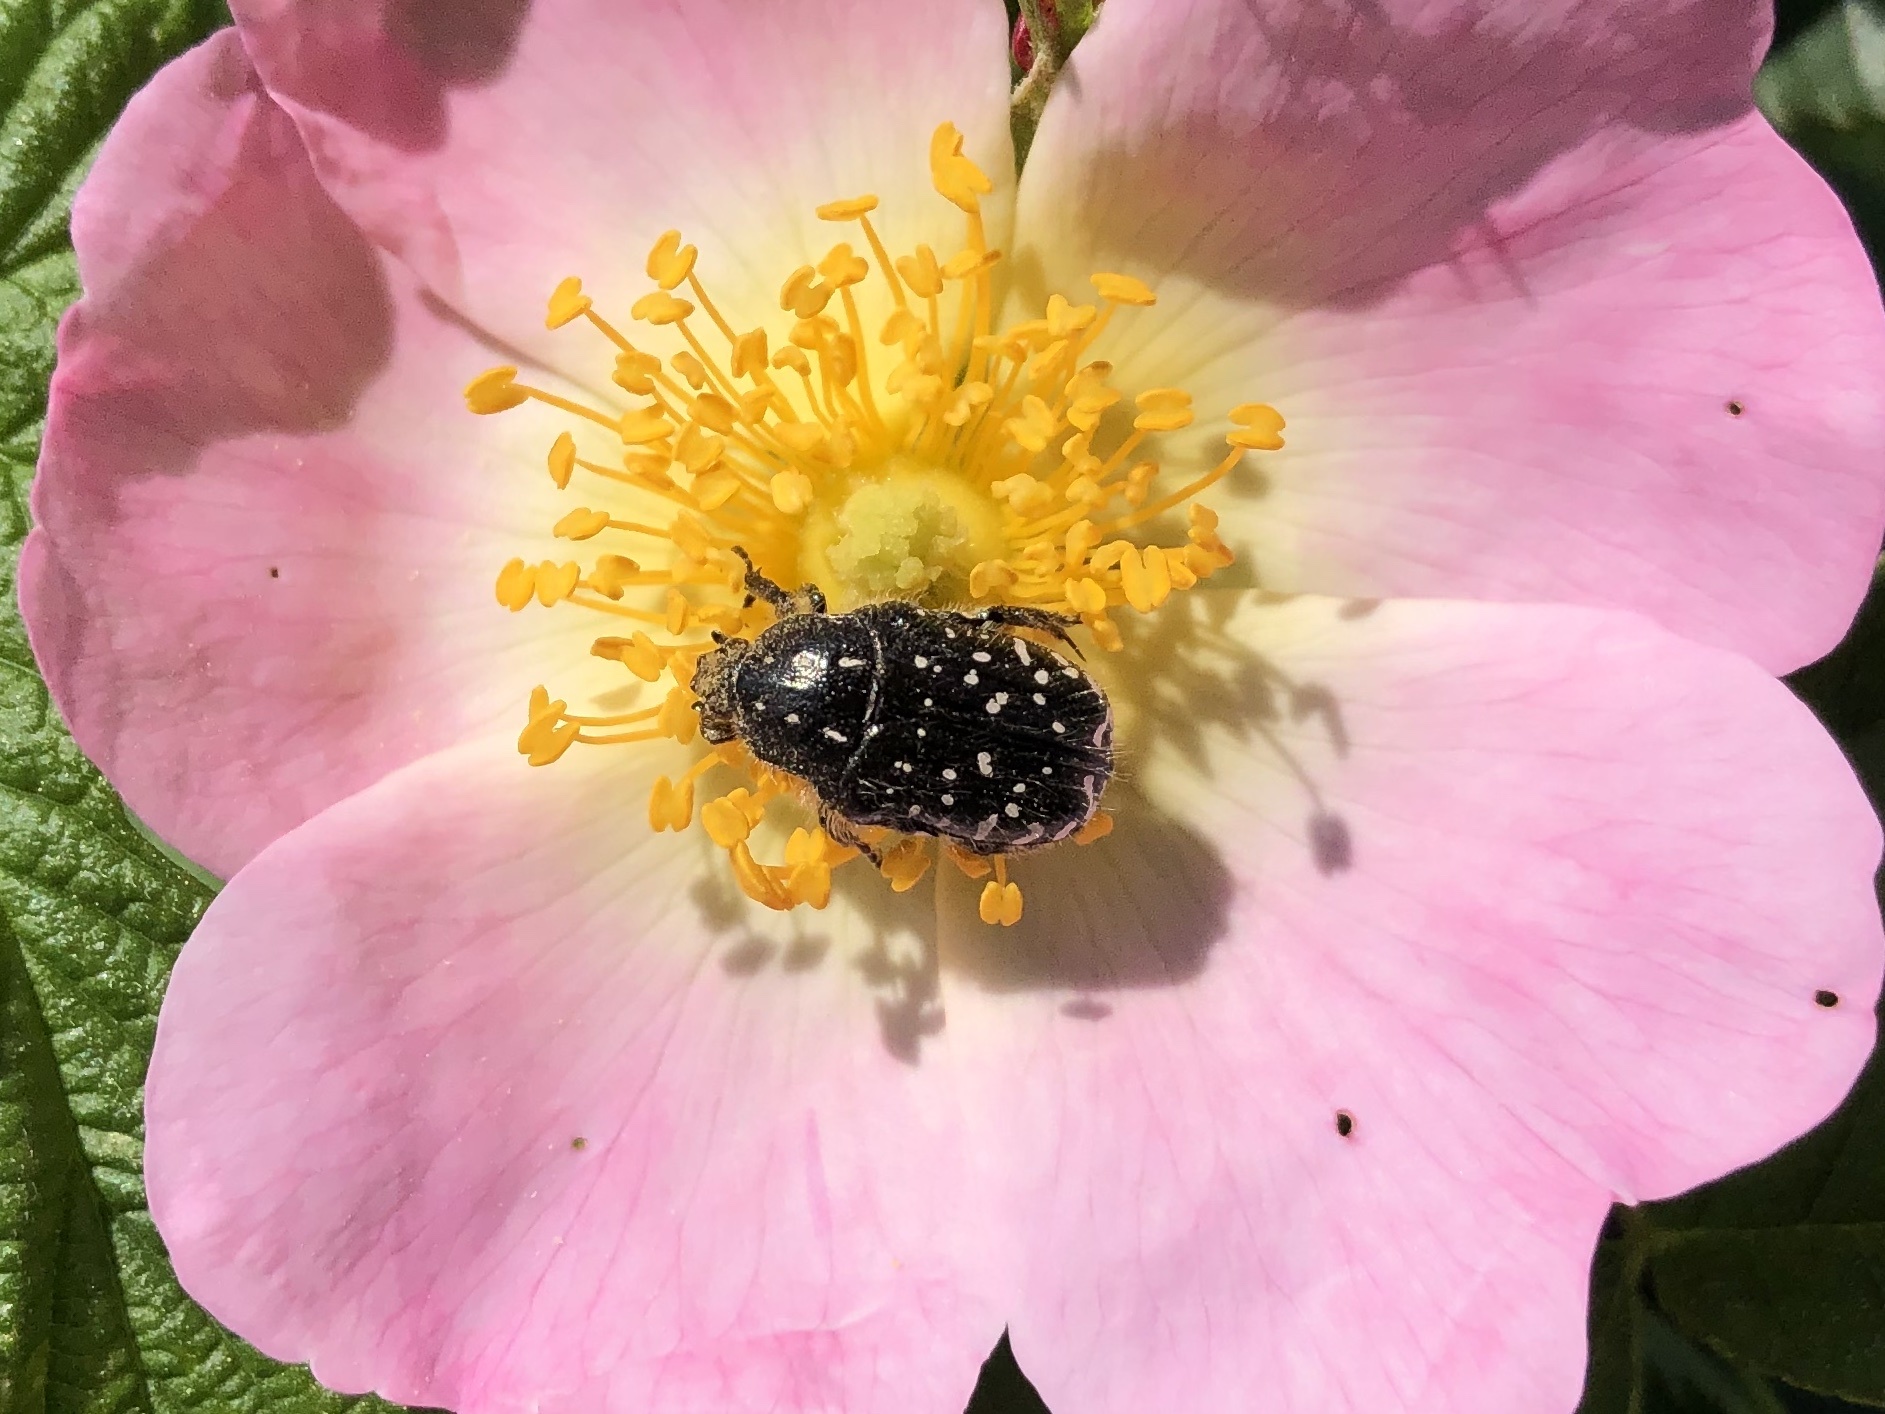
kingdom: Animalia
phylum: Arthropoda
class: Insecta
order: Coleoptera
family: Scarabaeidae
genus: Oxythyrea
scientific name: Oxythyrea funesta
